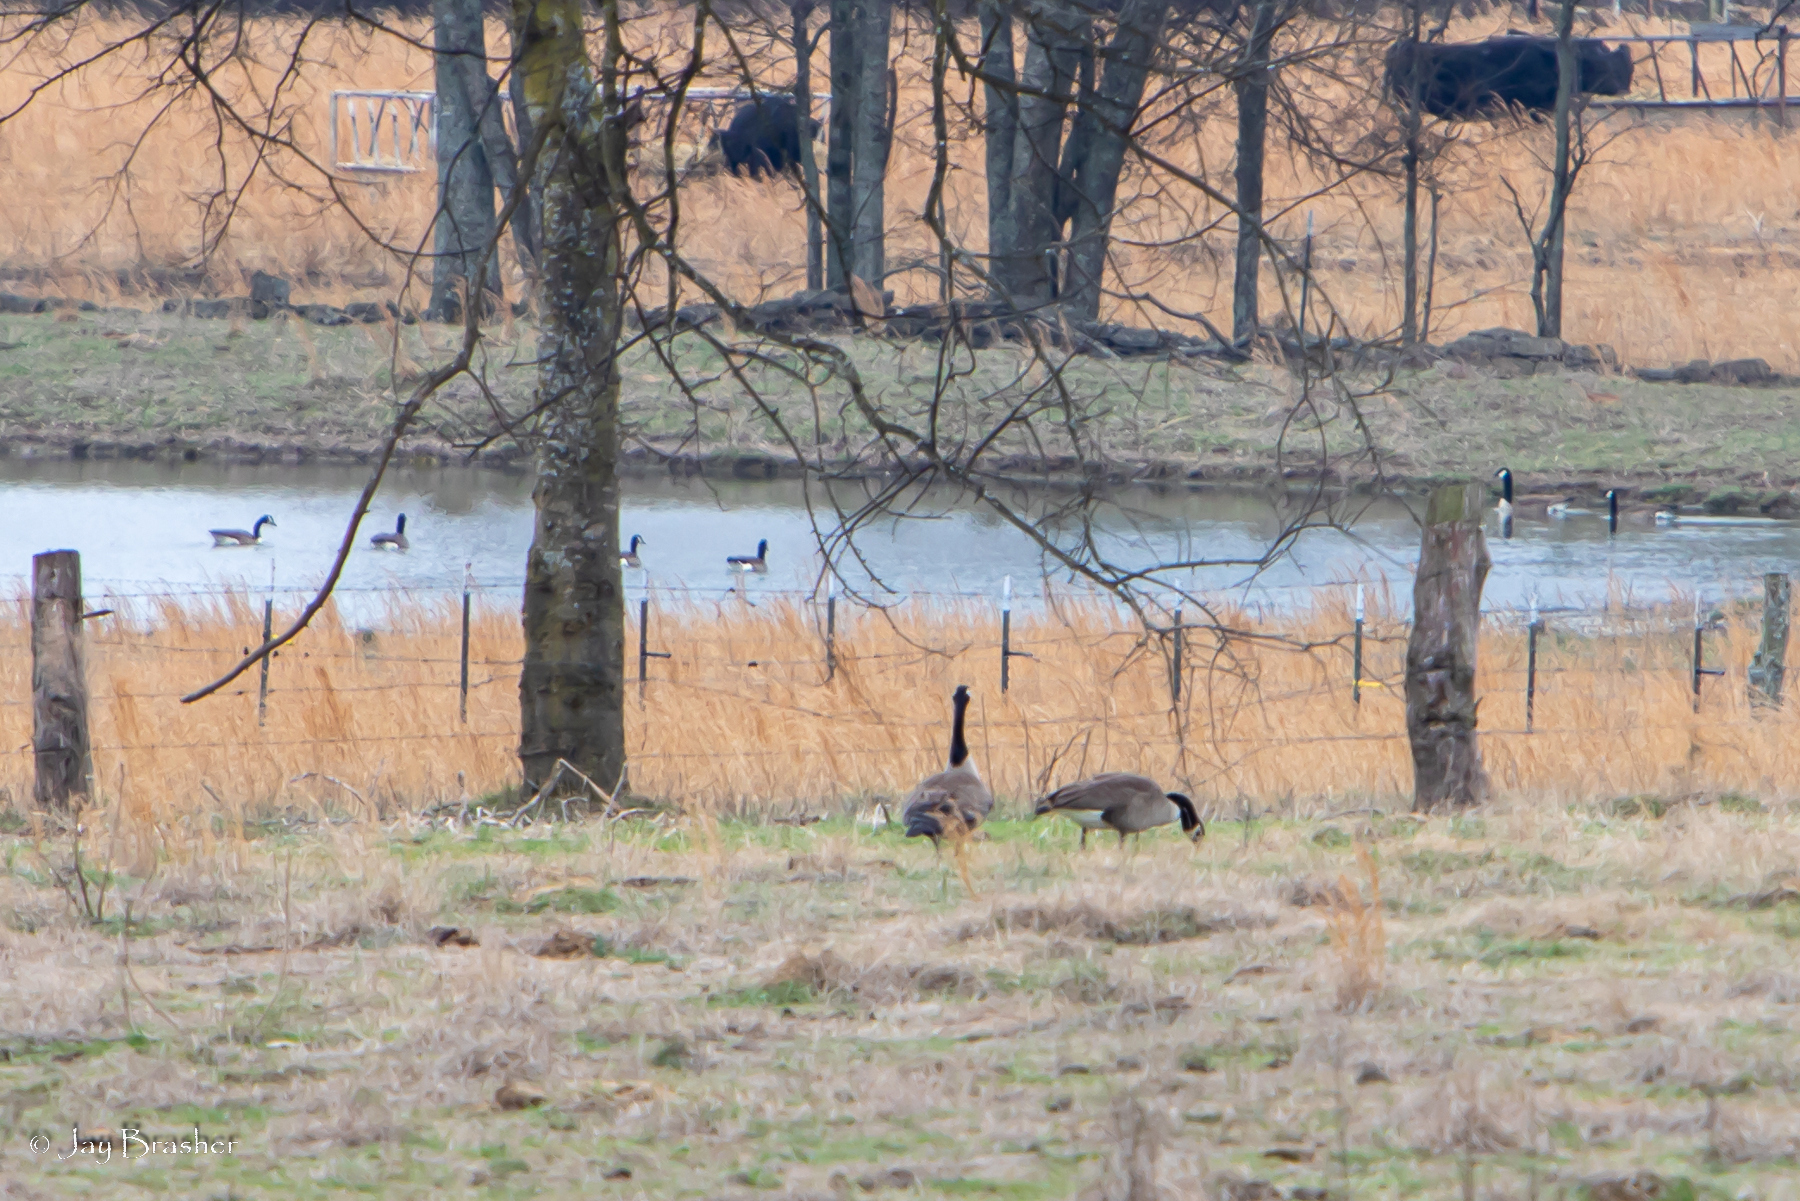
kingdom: Animalia
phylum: Chordata
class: Aves
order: Anseriformes
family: Anatidae
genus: Branta
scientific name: Branta canadensis
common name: Canada goose
